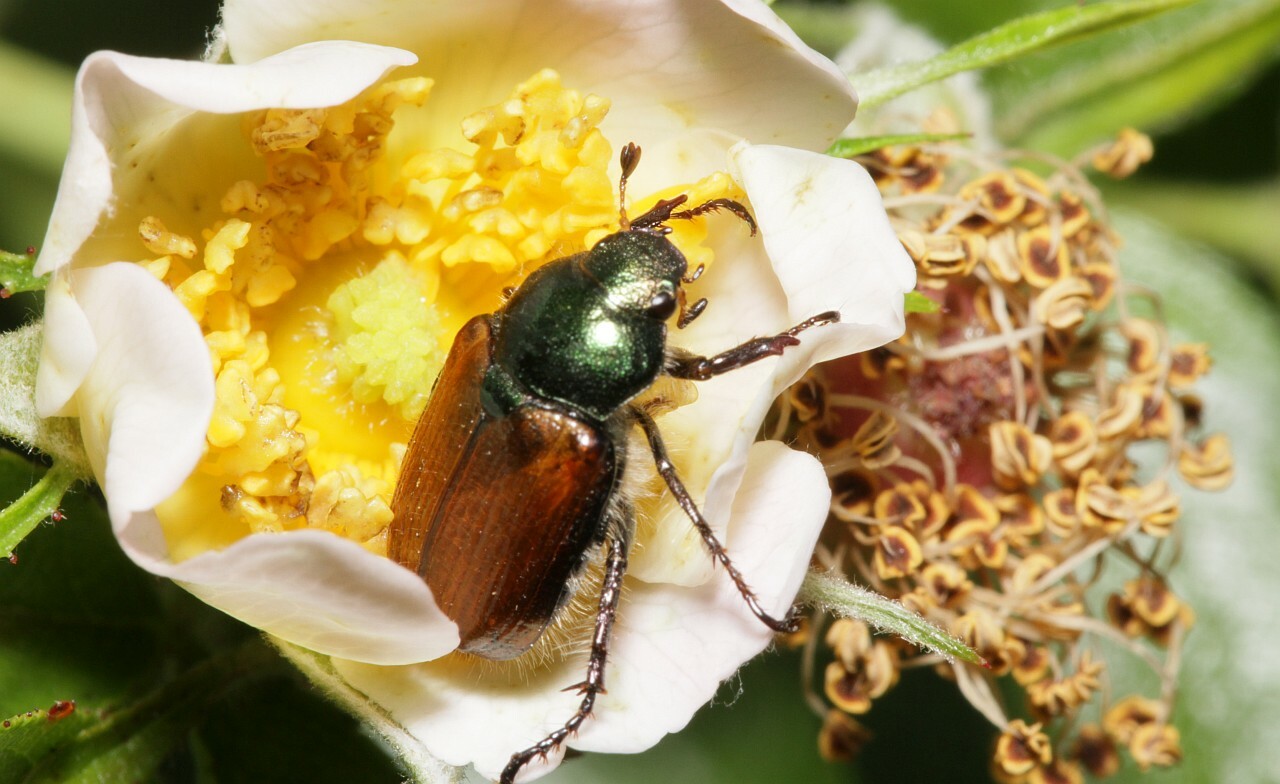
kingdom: Animalia
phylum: Arthropoda
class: Insecta
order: Coleoptera
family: Scarabaeidae
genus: Phyllopertha
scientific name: Phyllopertha horticola
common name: Garden chafer
